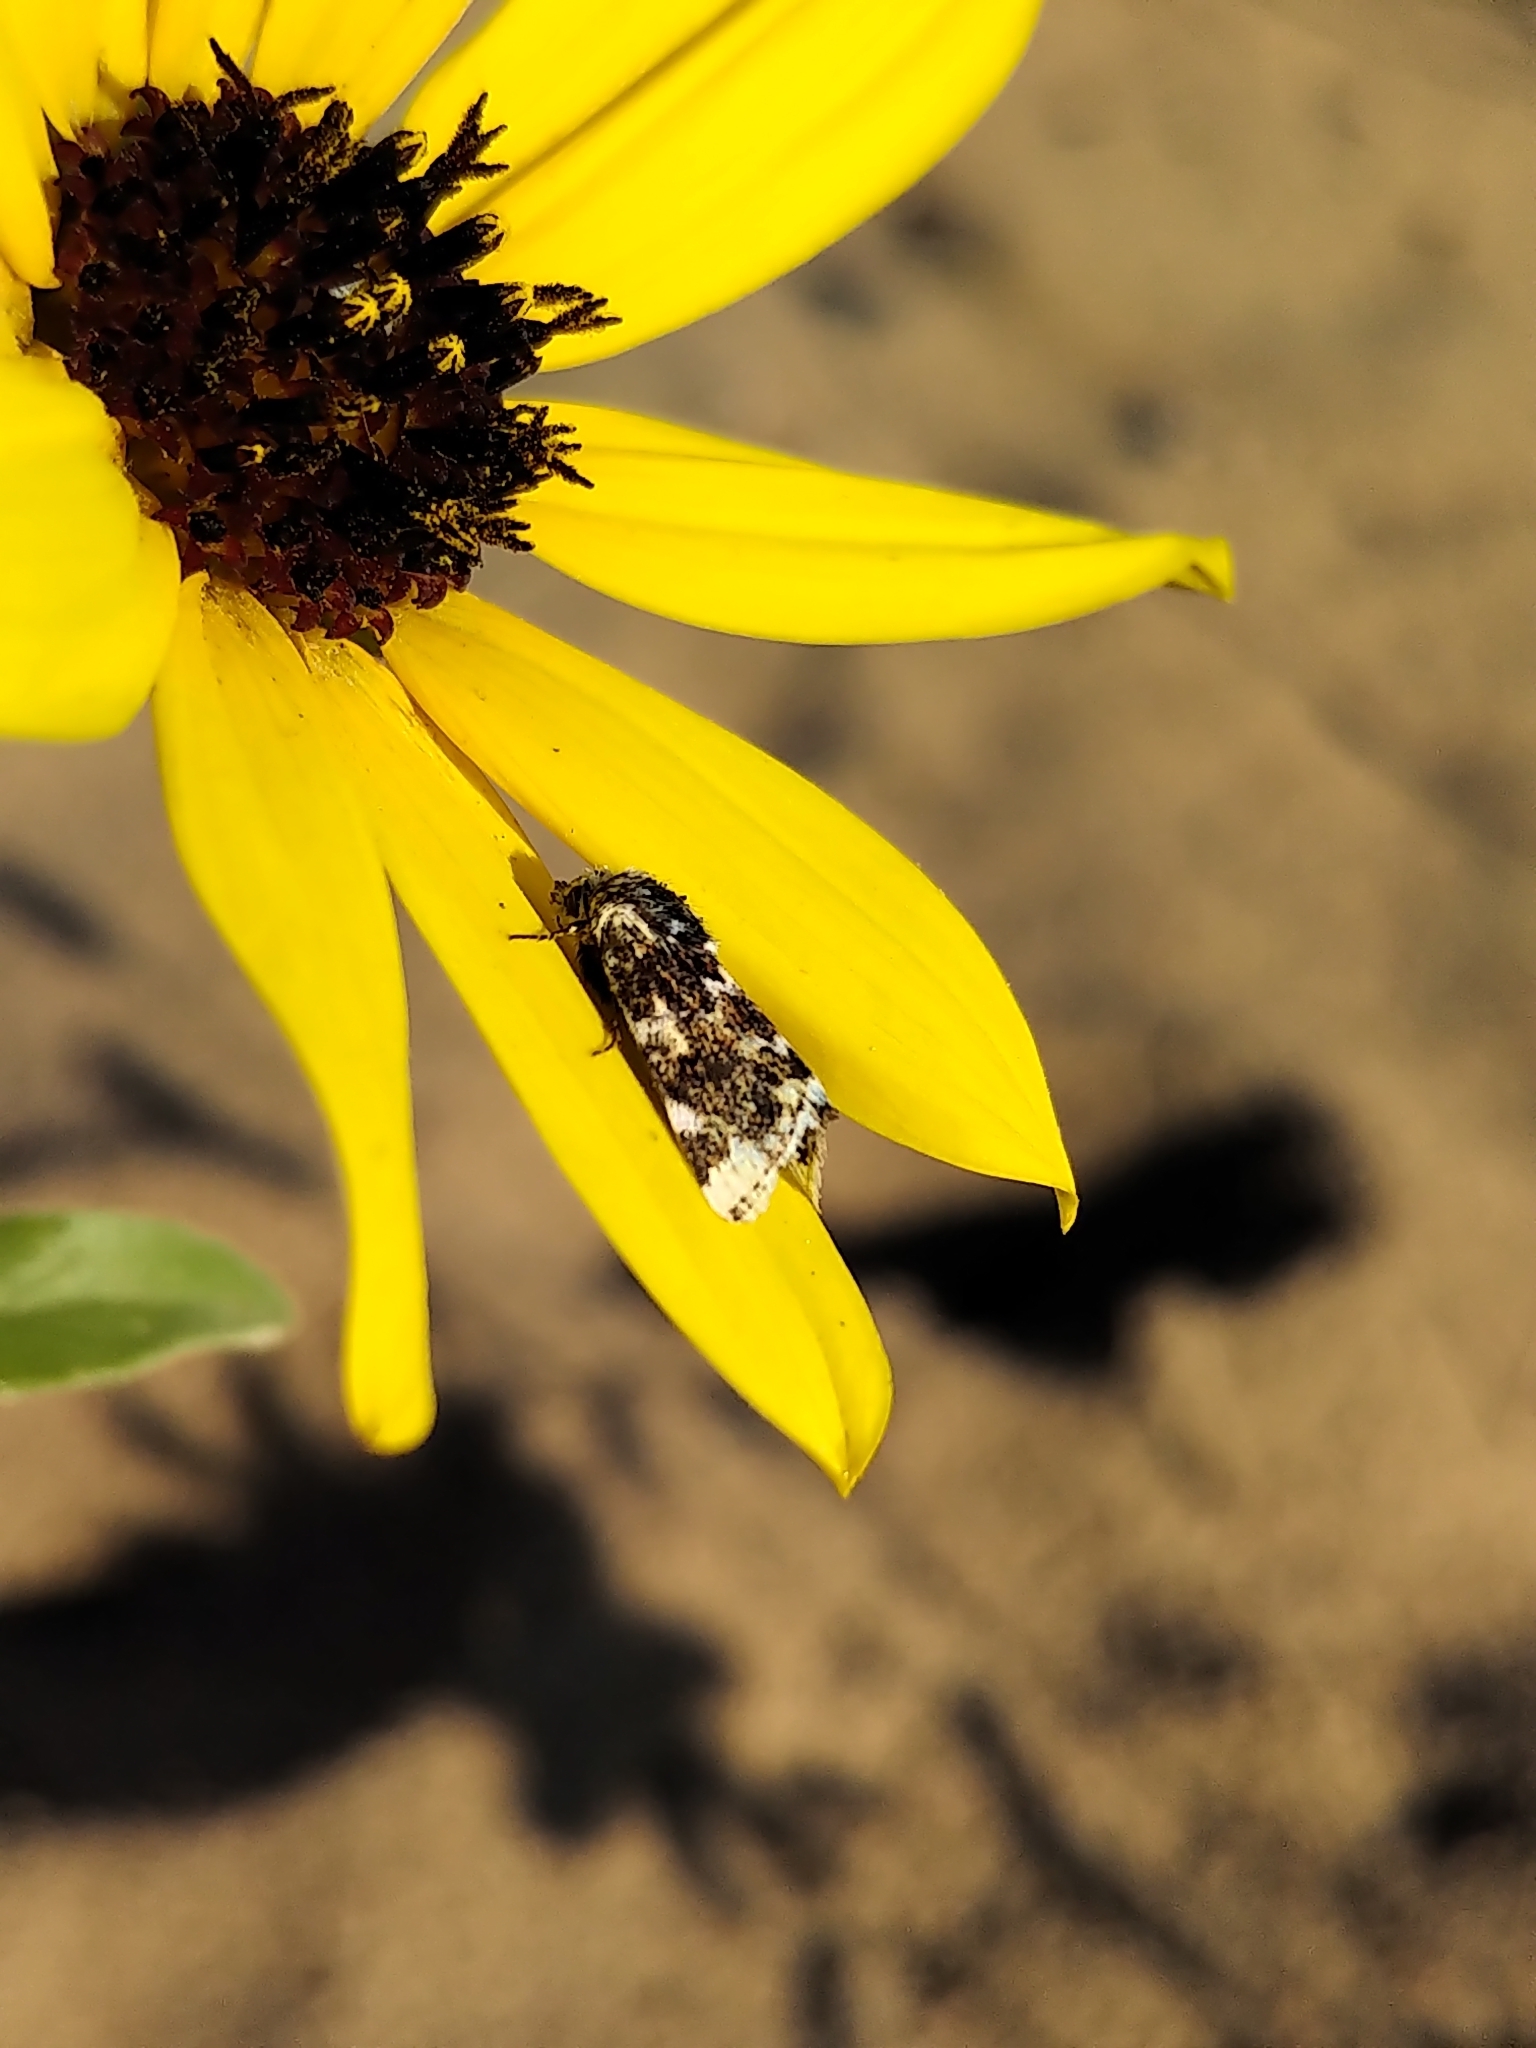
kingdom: Animalia
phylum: Arthropoda
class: Insecta
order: Lepidoptera
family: Noctuidae
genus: Schinia
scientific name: Schinia avemensis
